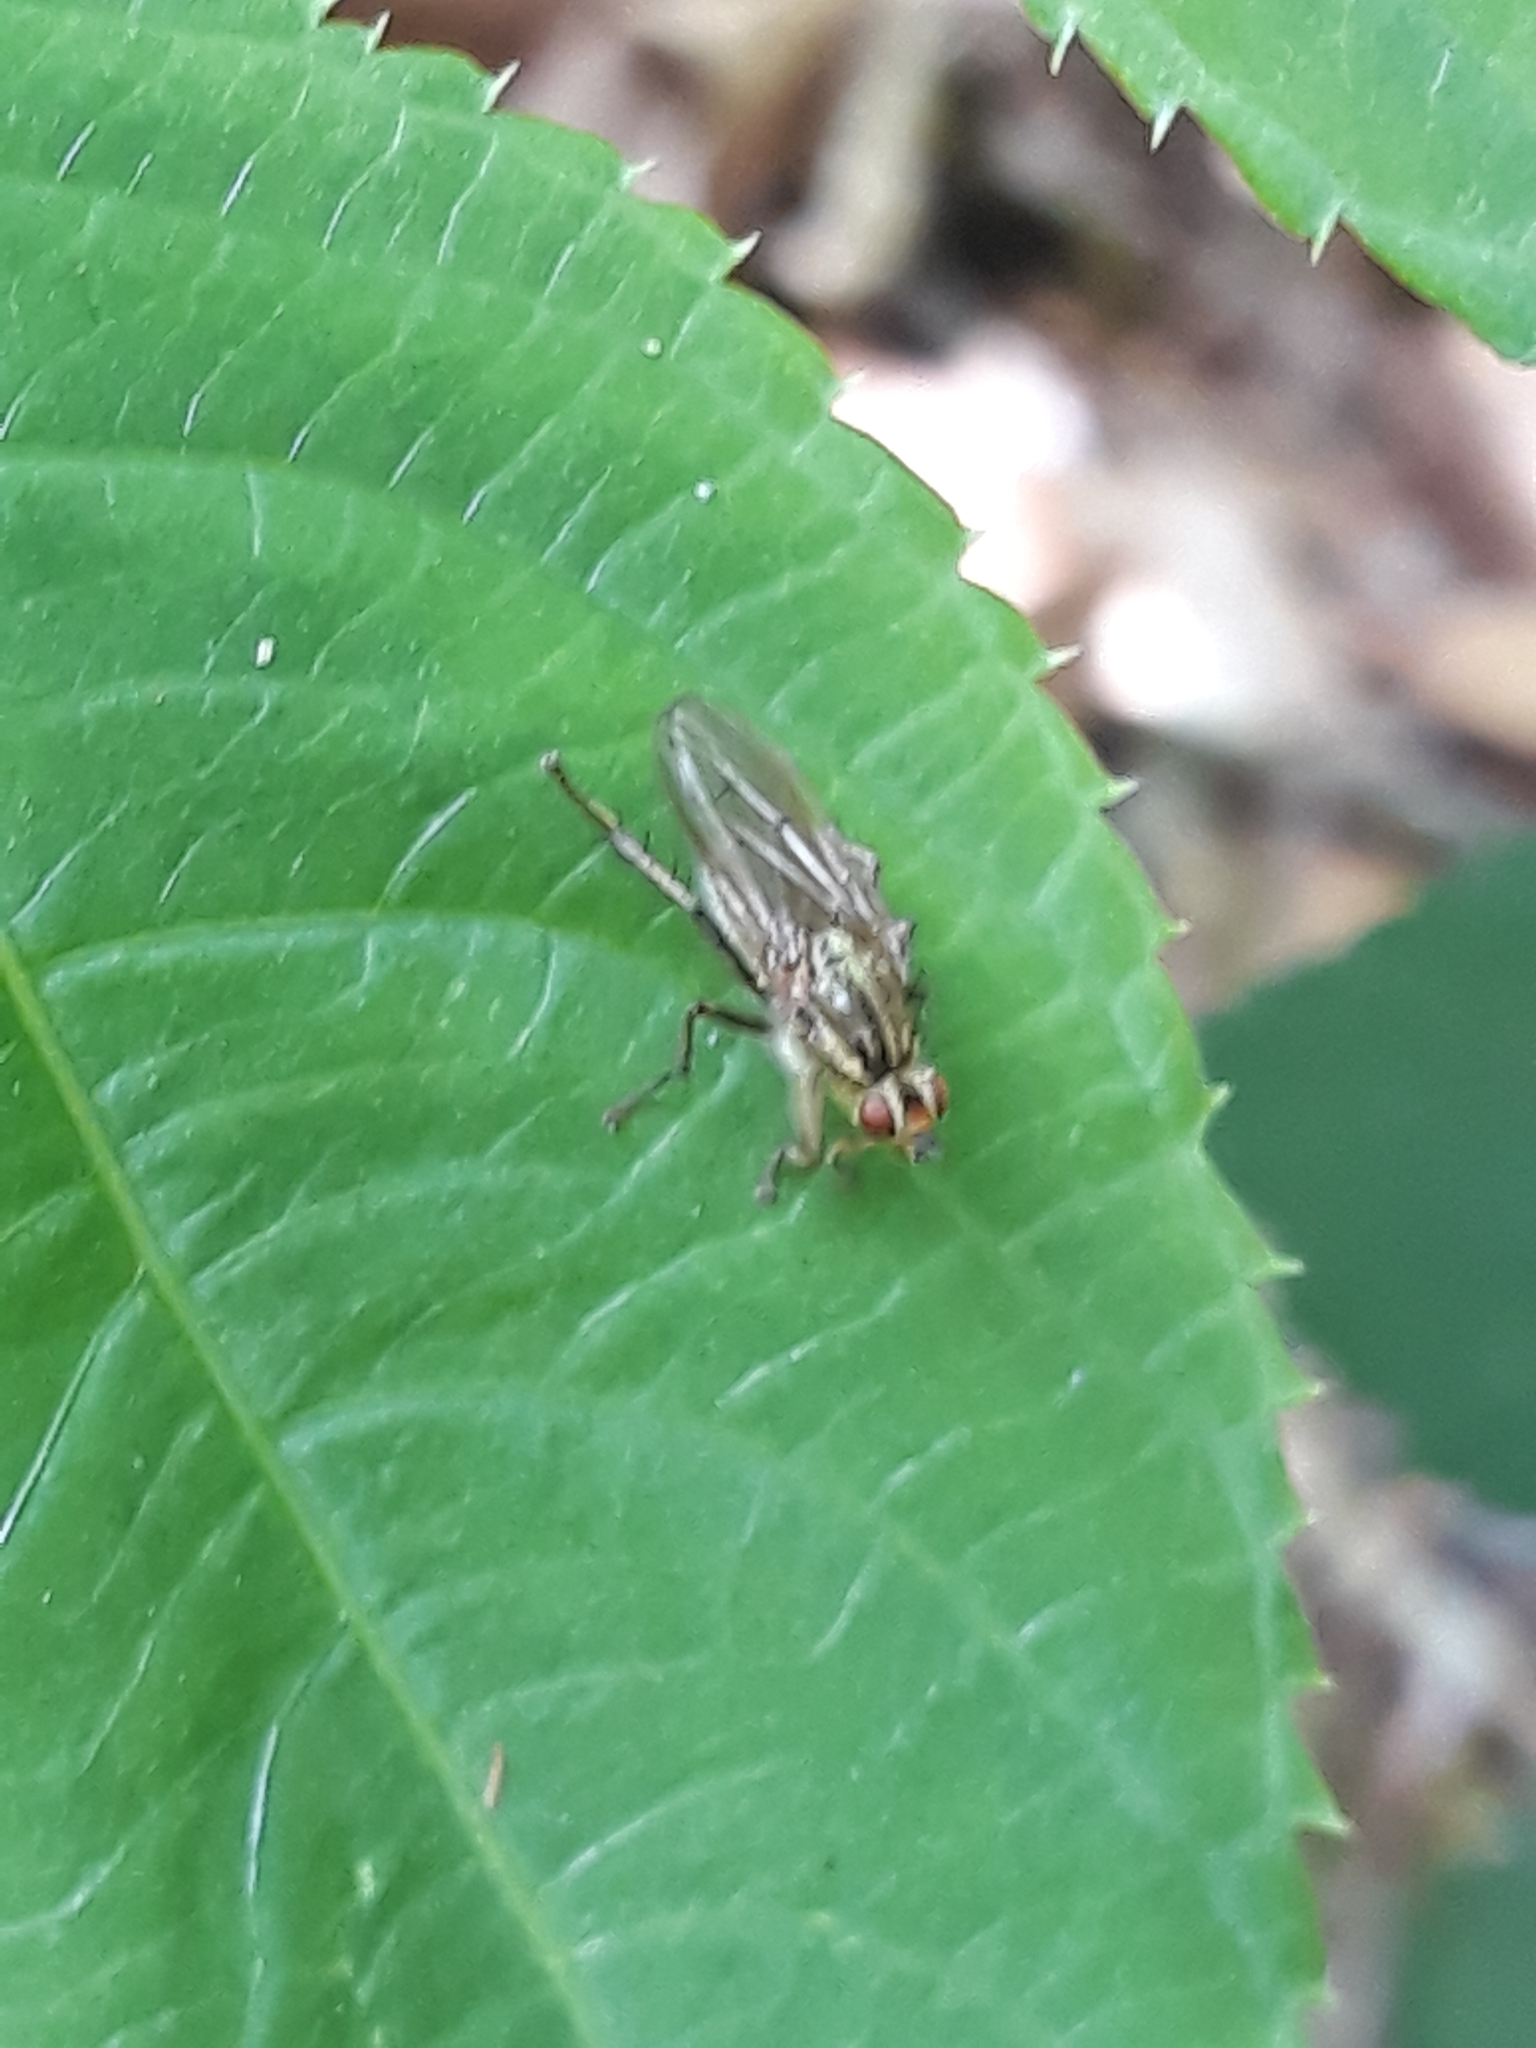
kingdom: Animalia
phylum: Arthropoda
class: Insecta
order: Diptera
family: Scathophagidae
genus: Scathophaga
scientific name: Scathophaga stercoraria
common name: Yellow dung fly
